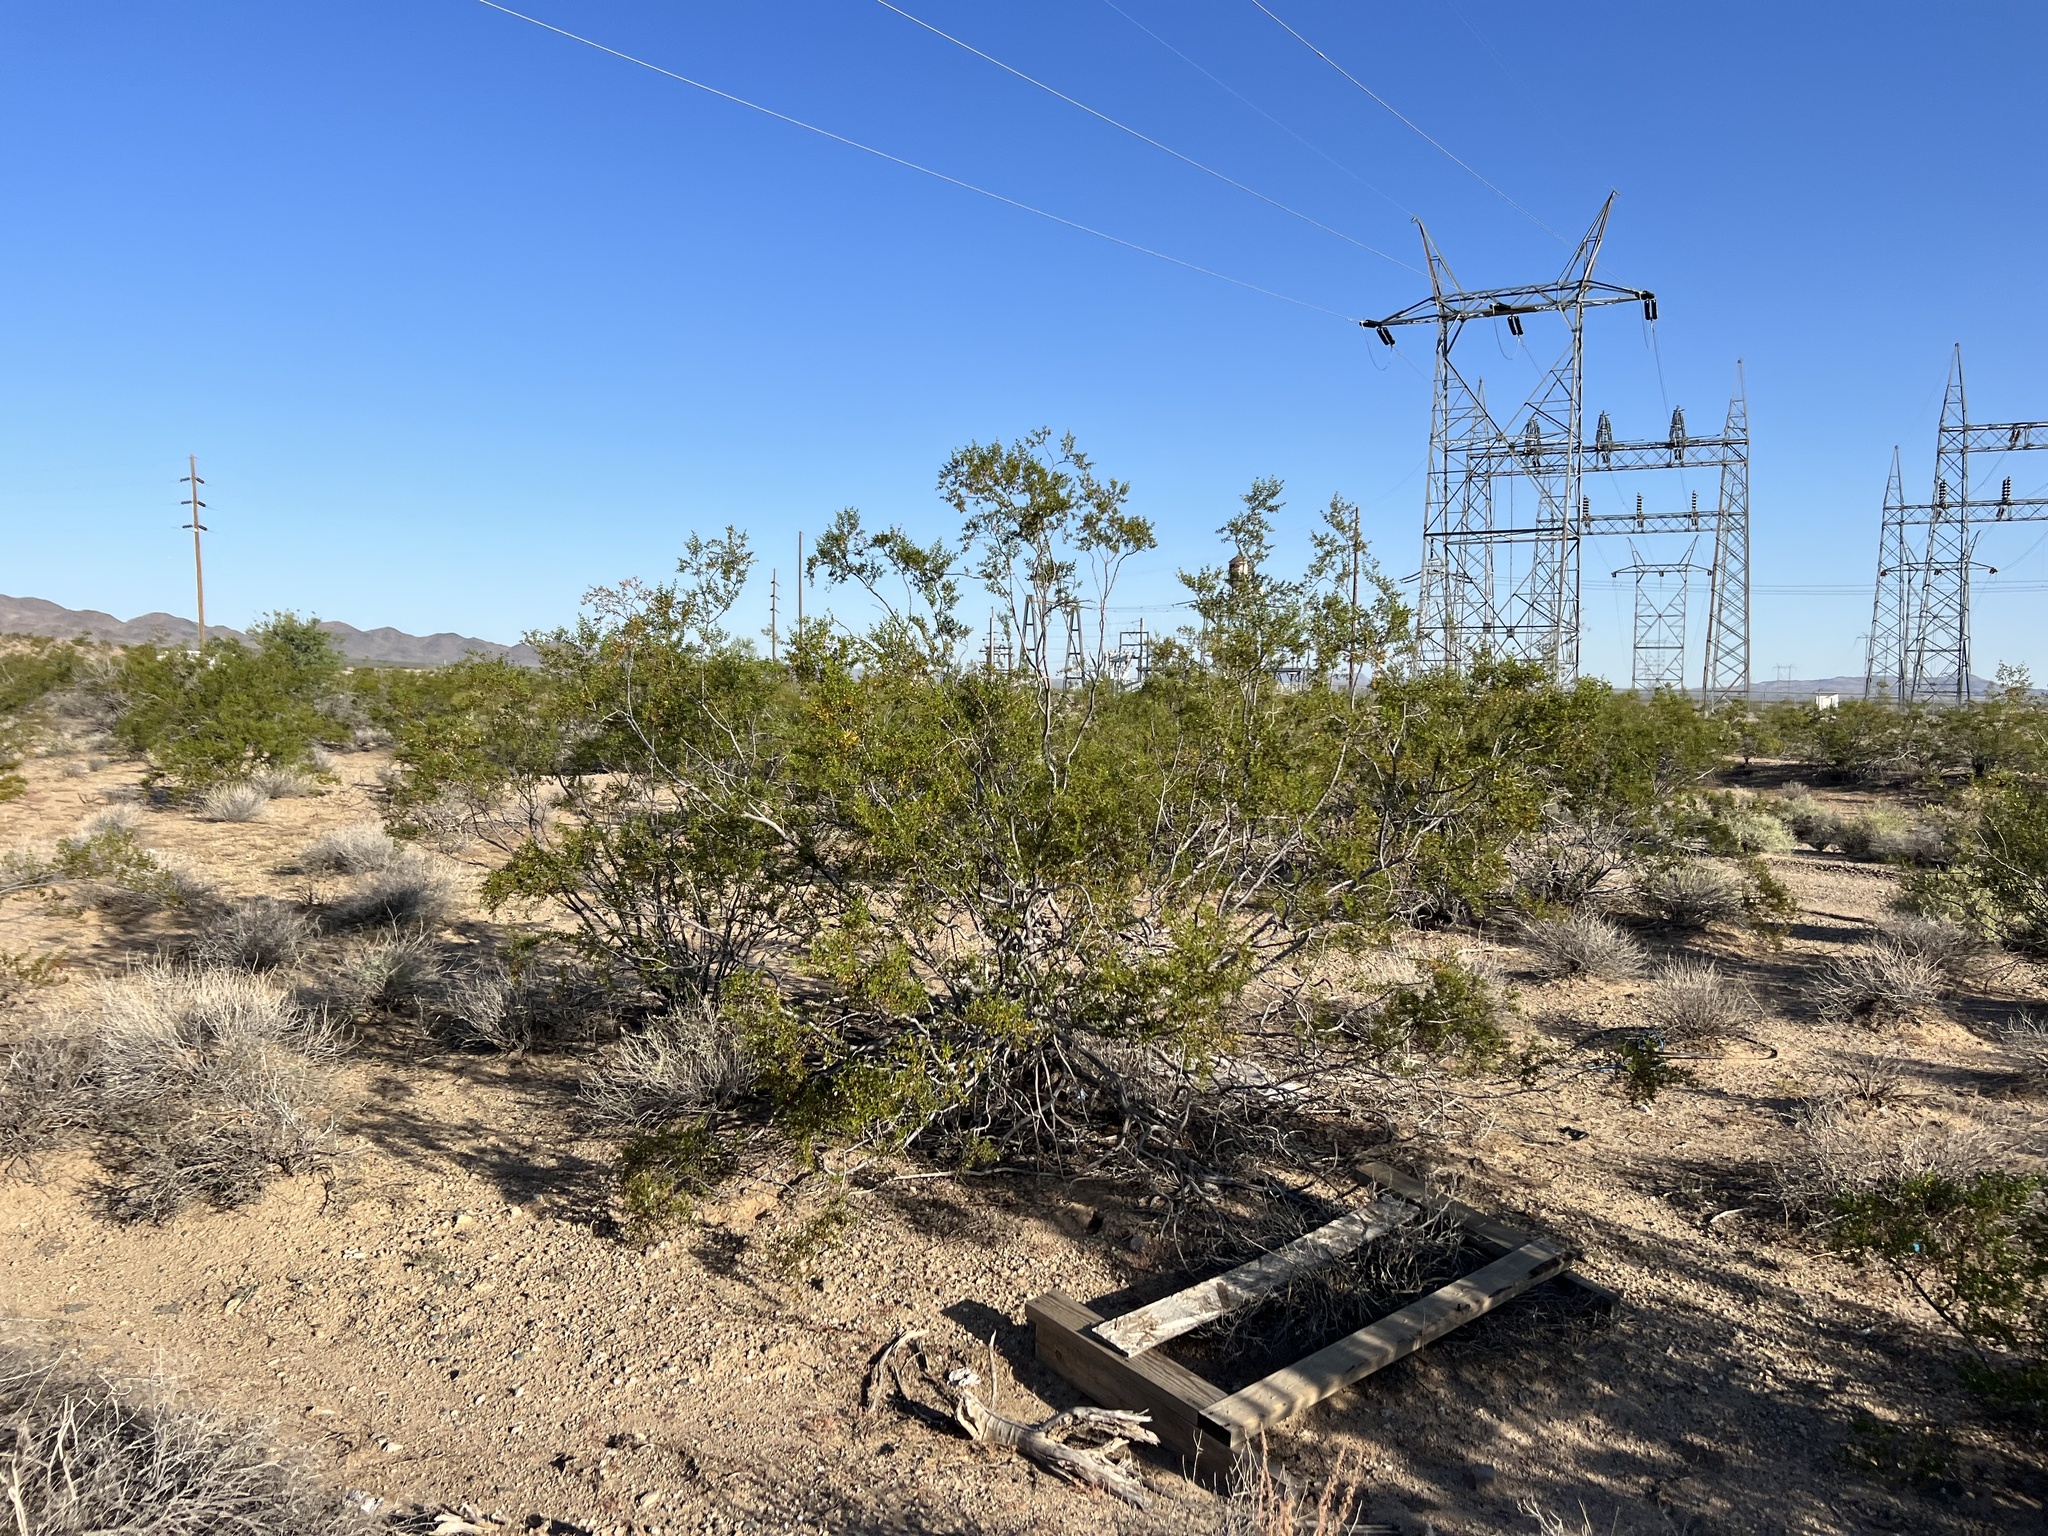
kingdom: Plantae
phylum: Tracheophyta
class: Magnoliopsida
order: Zygophyllales
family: Zygophyllaceae
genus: Larrea
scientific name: Larrea tridentata
